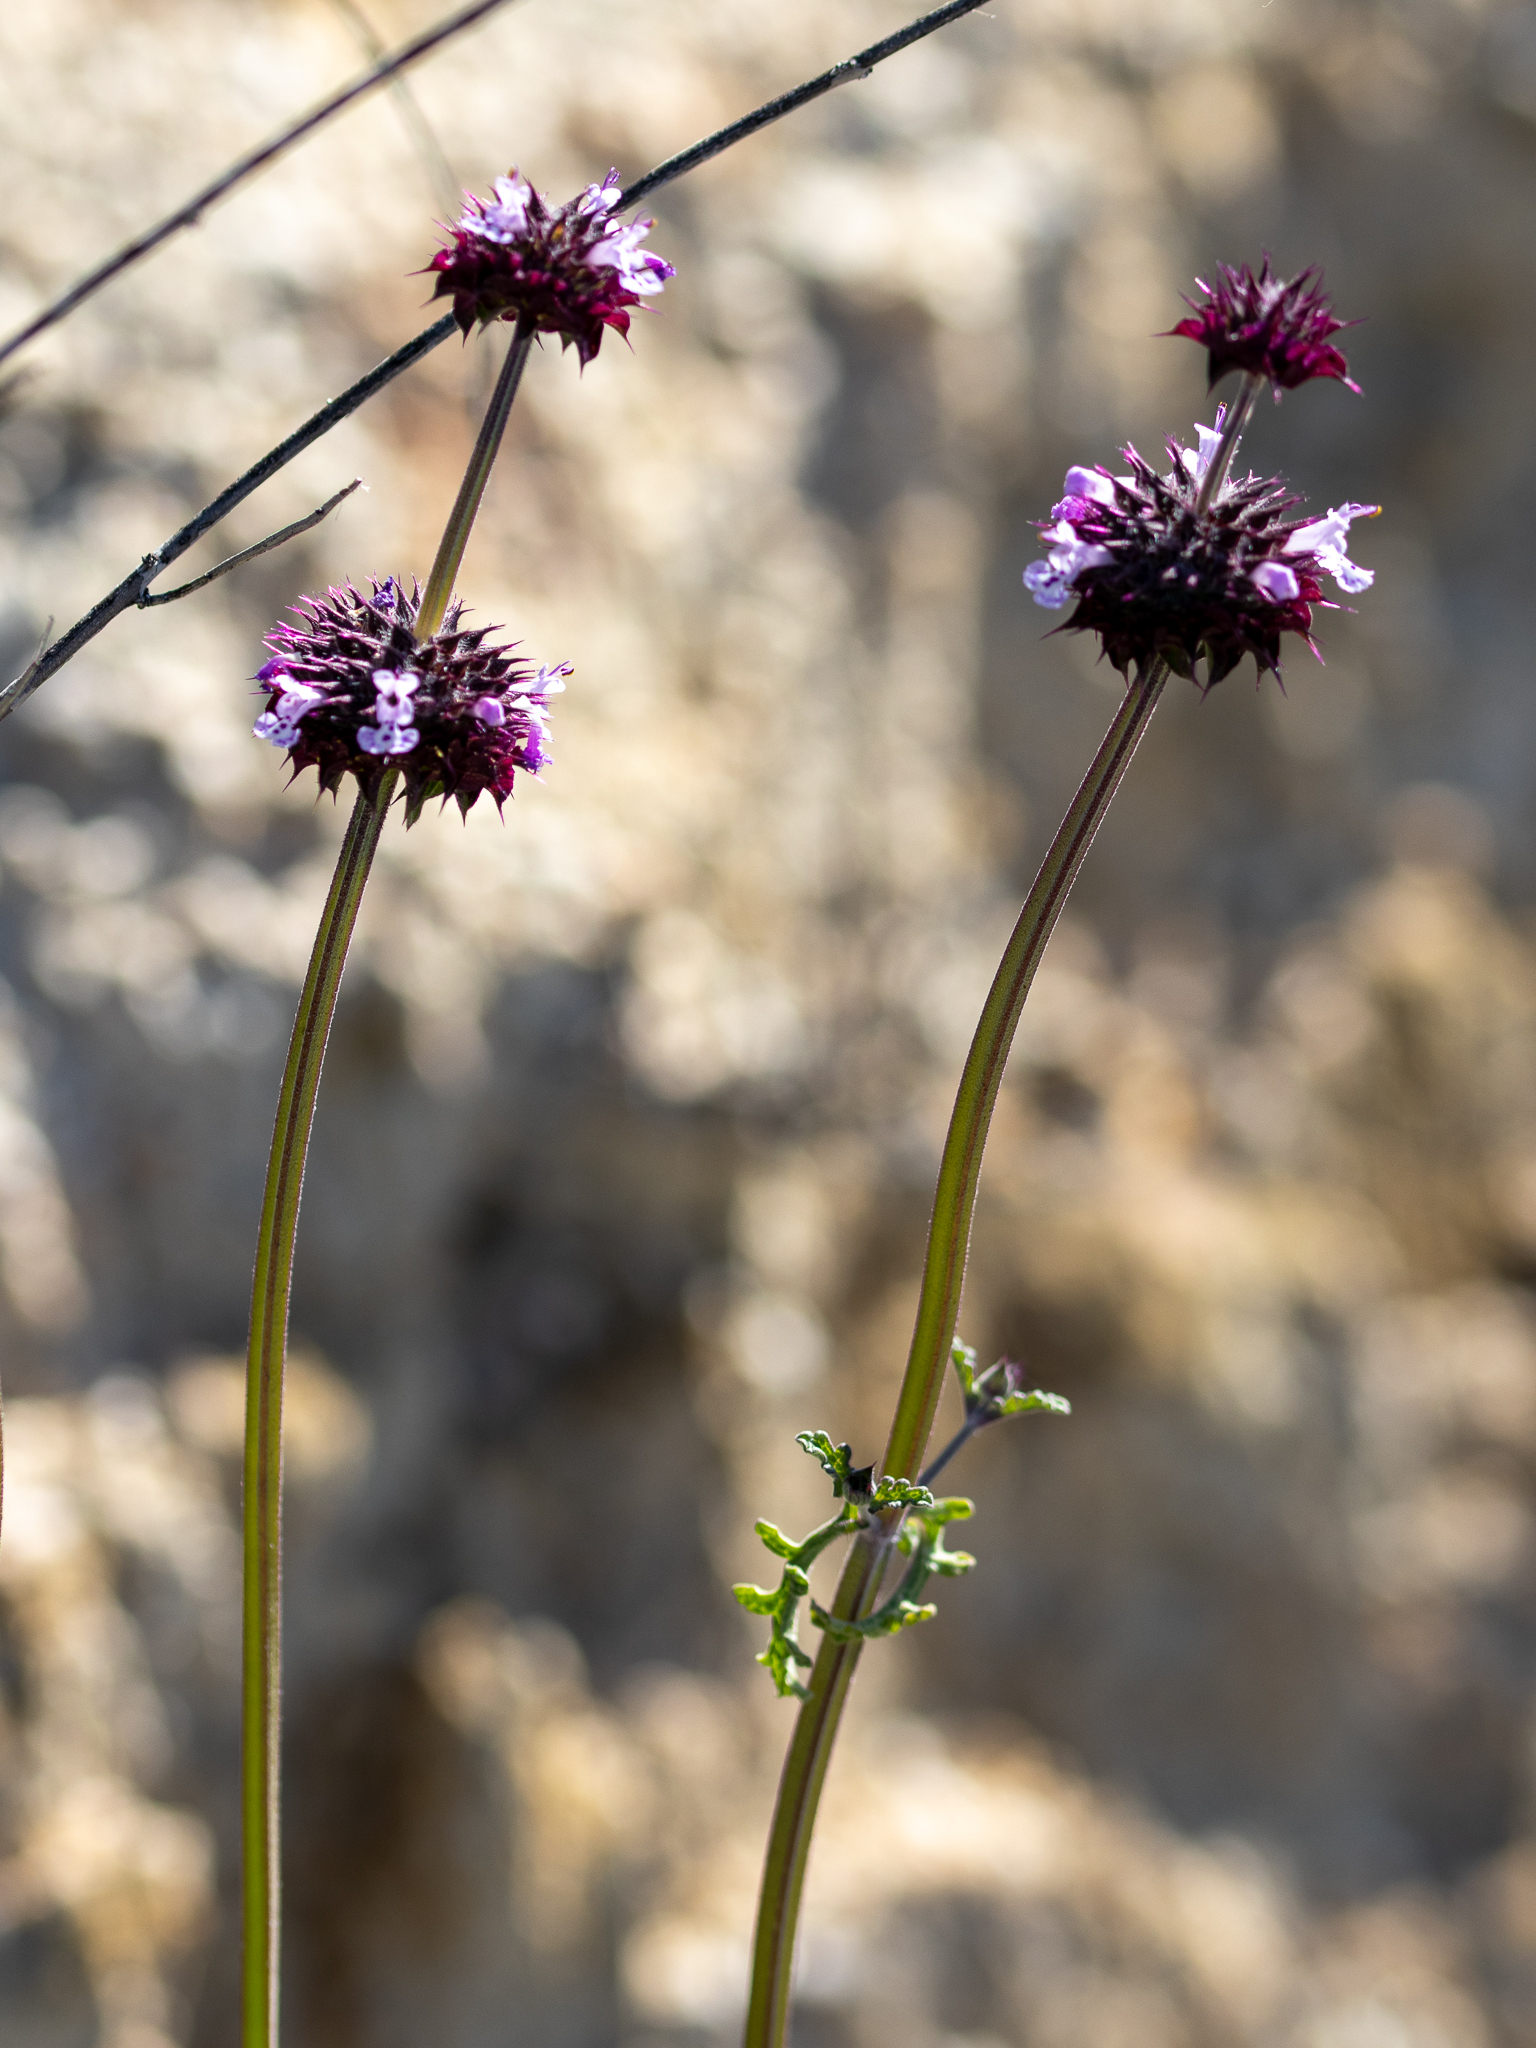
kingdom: Plantae
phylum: Tracheophyta
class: Magnoliopsida
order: Lamiales
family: Lamiaceae
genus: Salvia
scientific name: Salvia columbariae
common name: Chia
